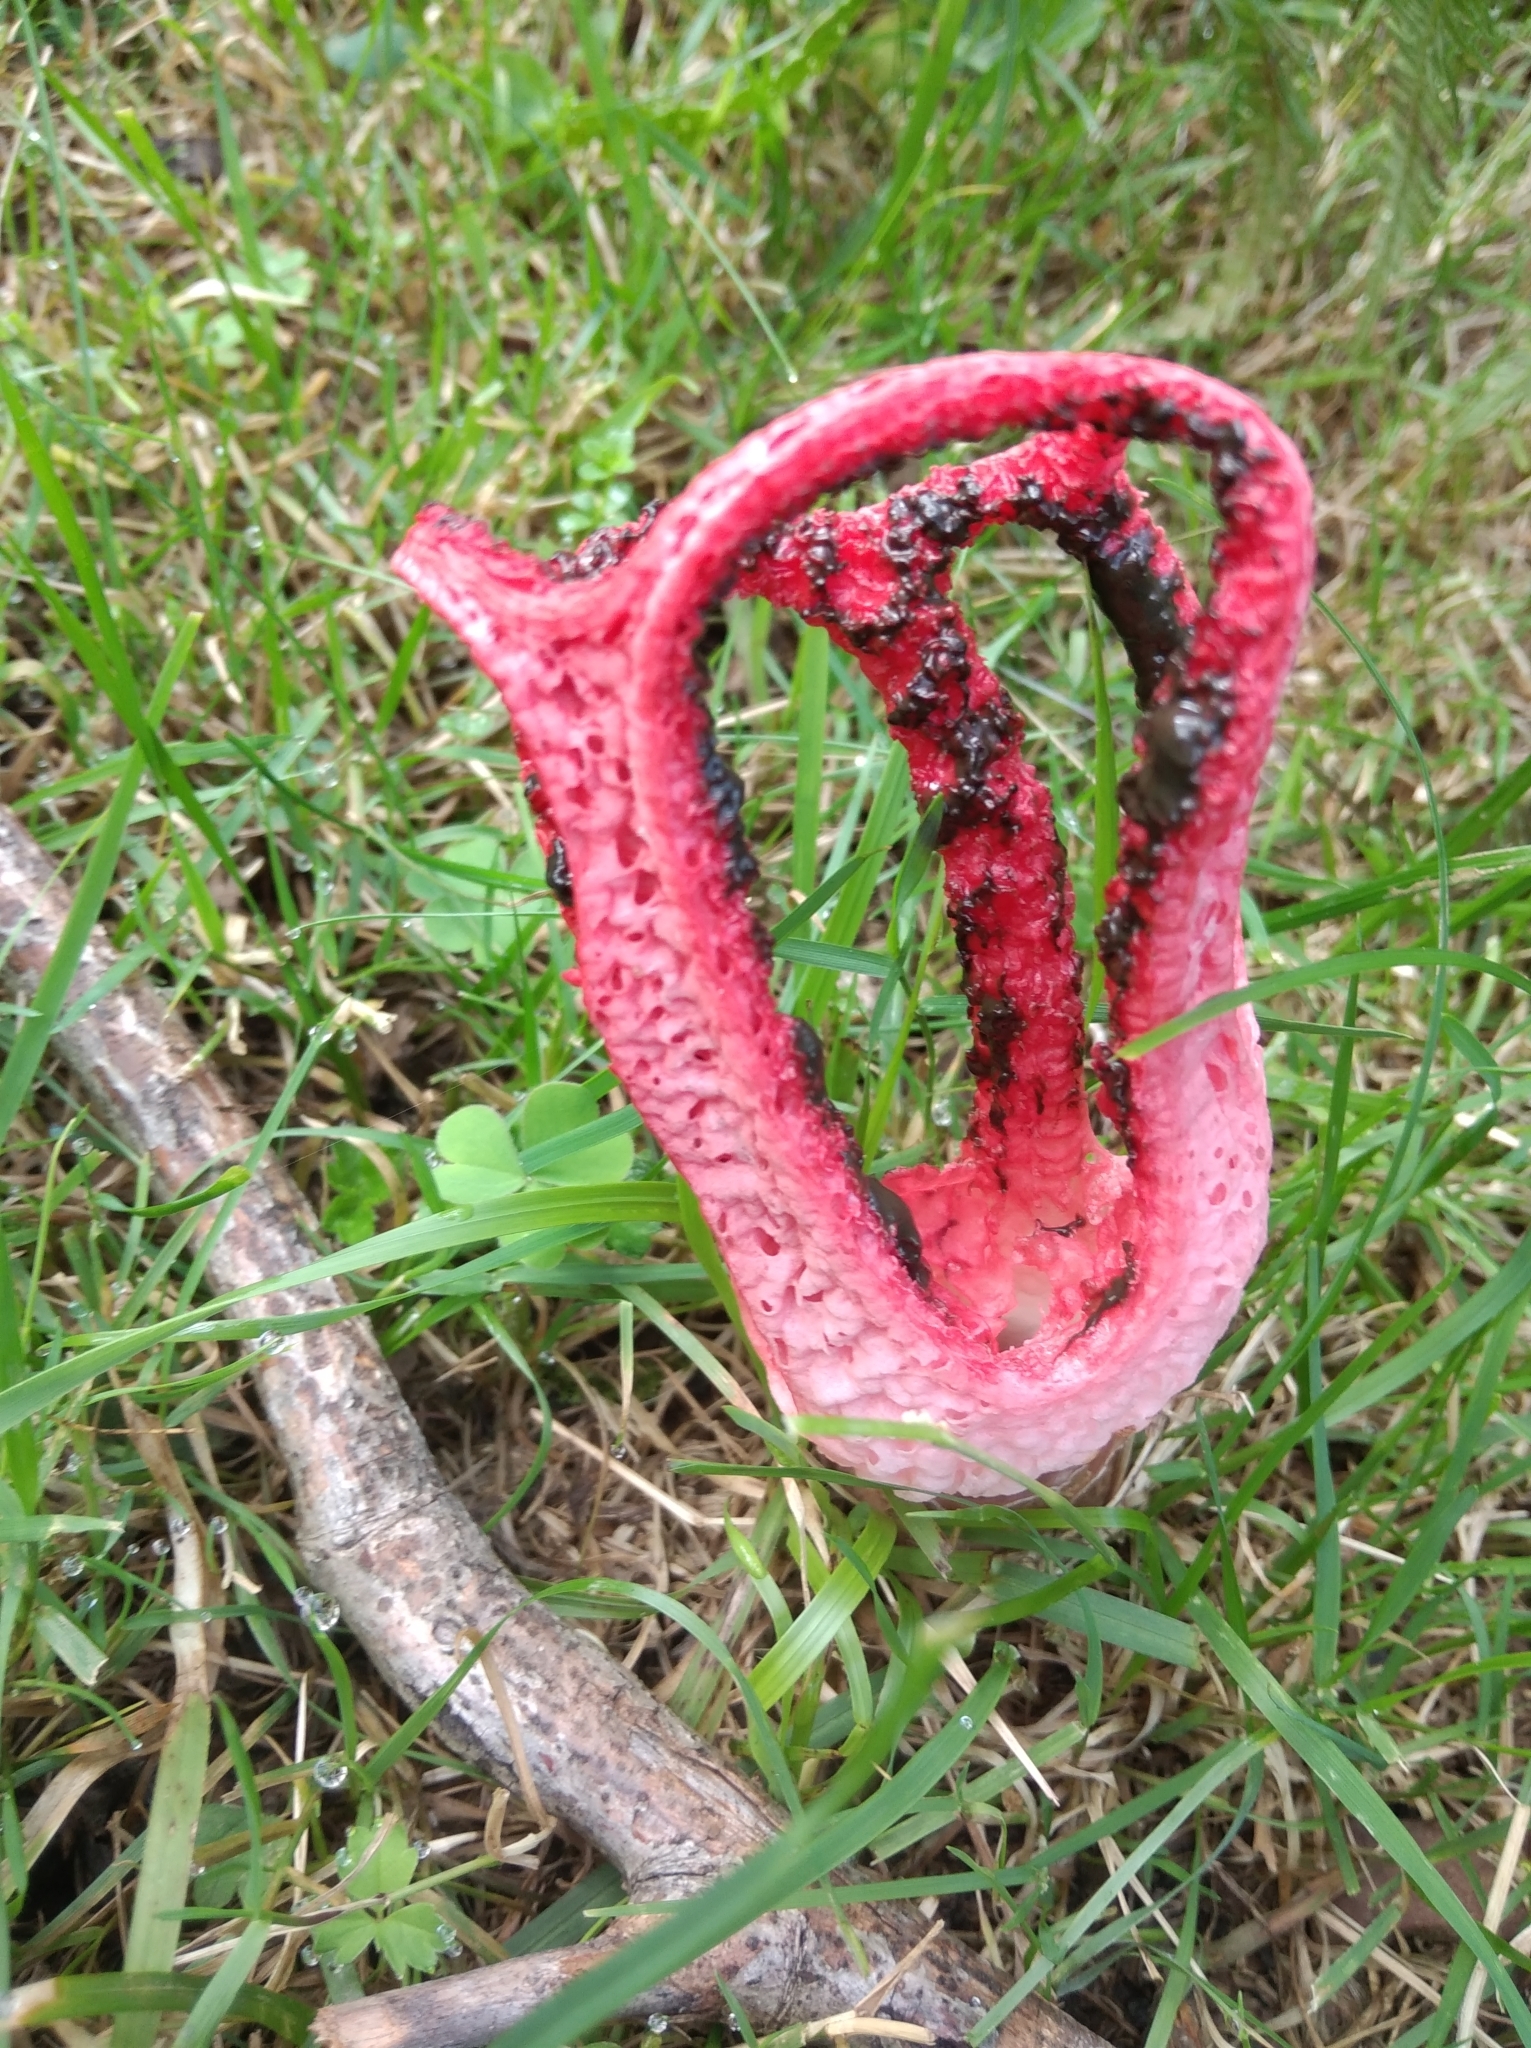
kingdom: Fungi
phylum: Basidiomycota
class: Agaricomycetes
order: Phallales
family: Phallaceae
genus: Clathrus
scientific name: Clathrus archeri
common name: Devil's fingers
